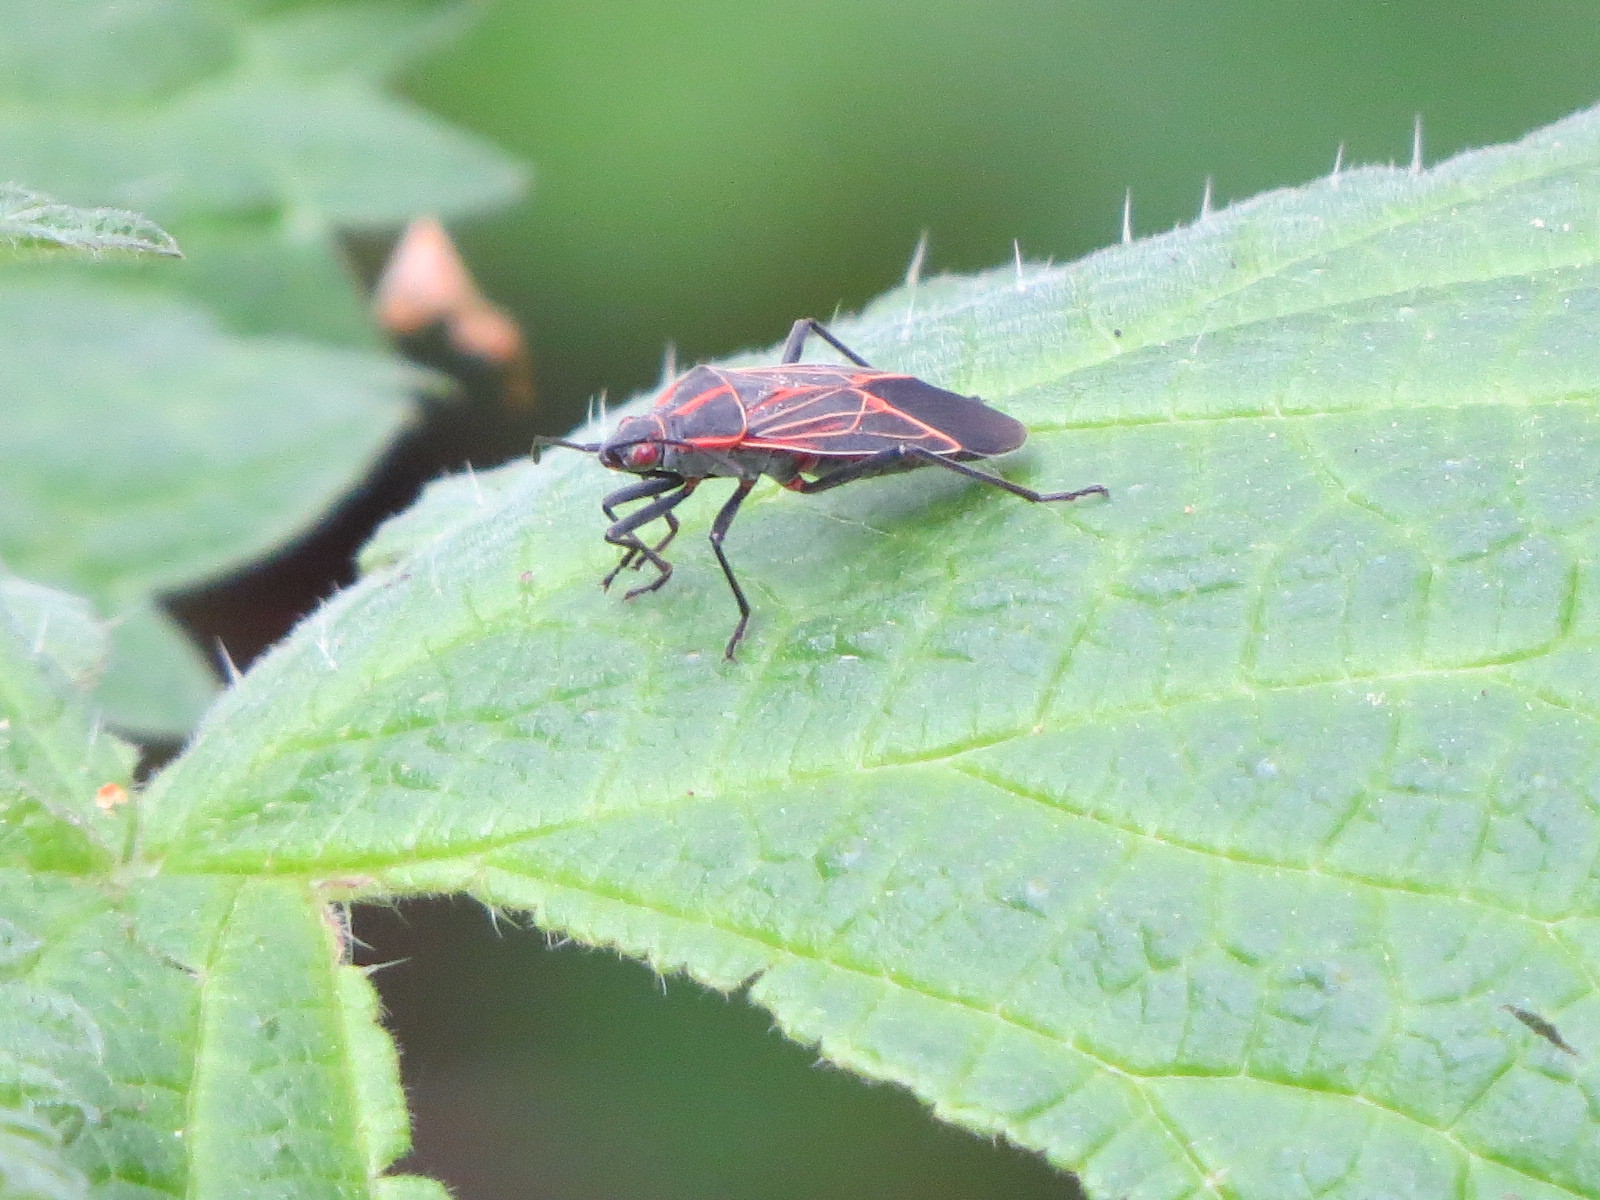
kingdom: Animalia
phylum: Arthropoda
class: Insecta
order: Hemiptera
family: Rhopalidae
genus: Boisea
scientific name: Boisea rubrolineata
